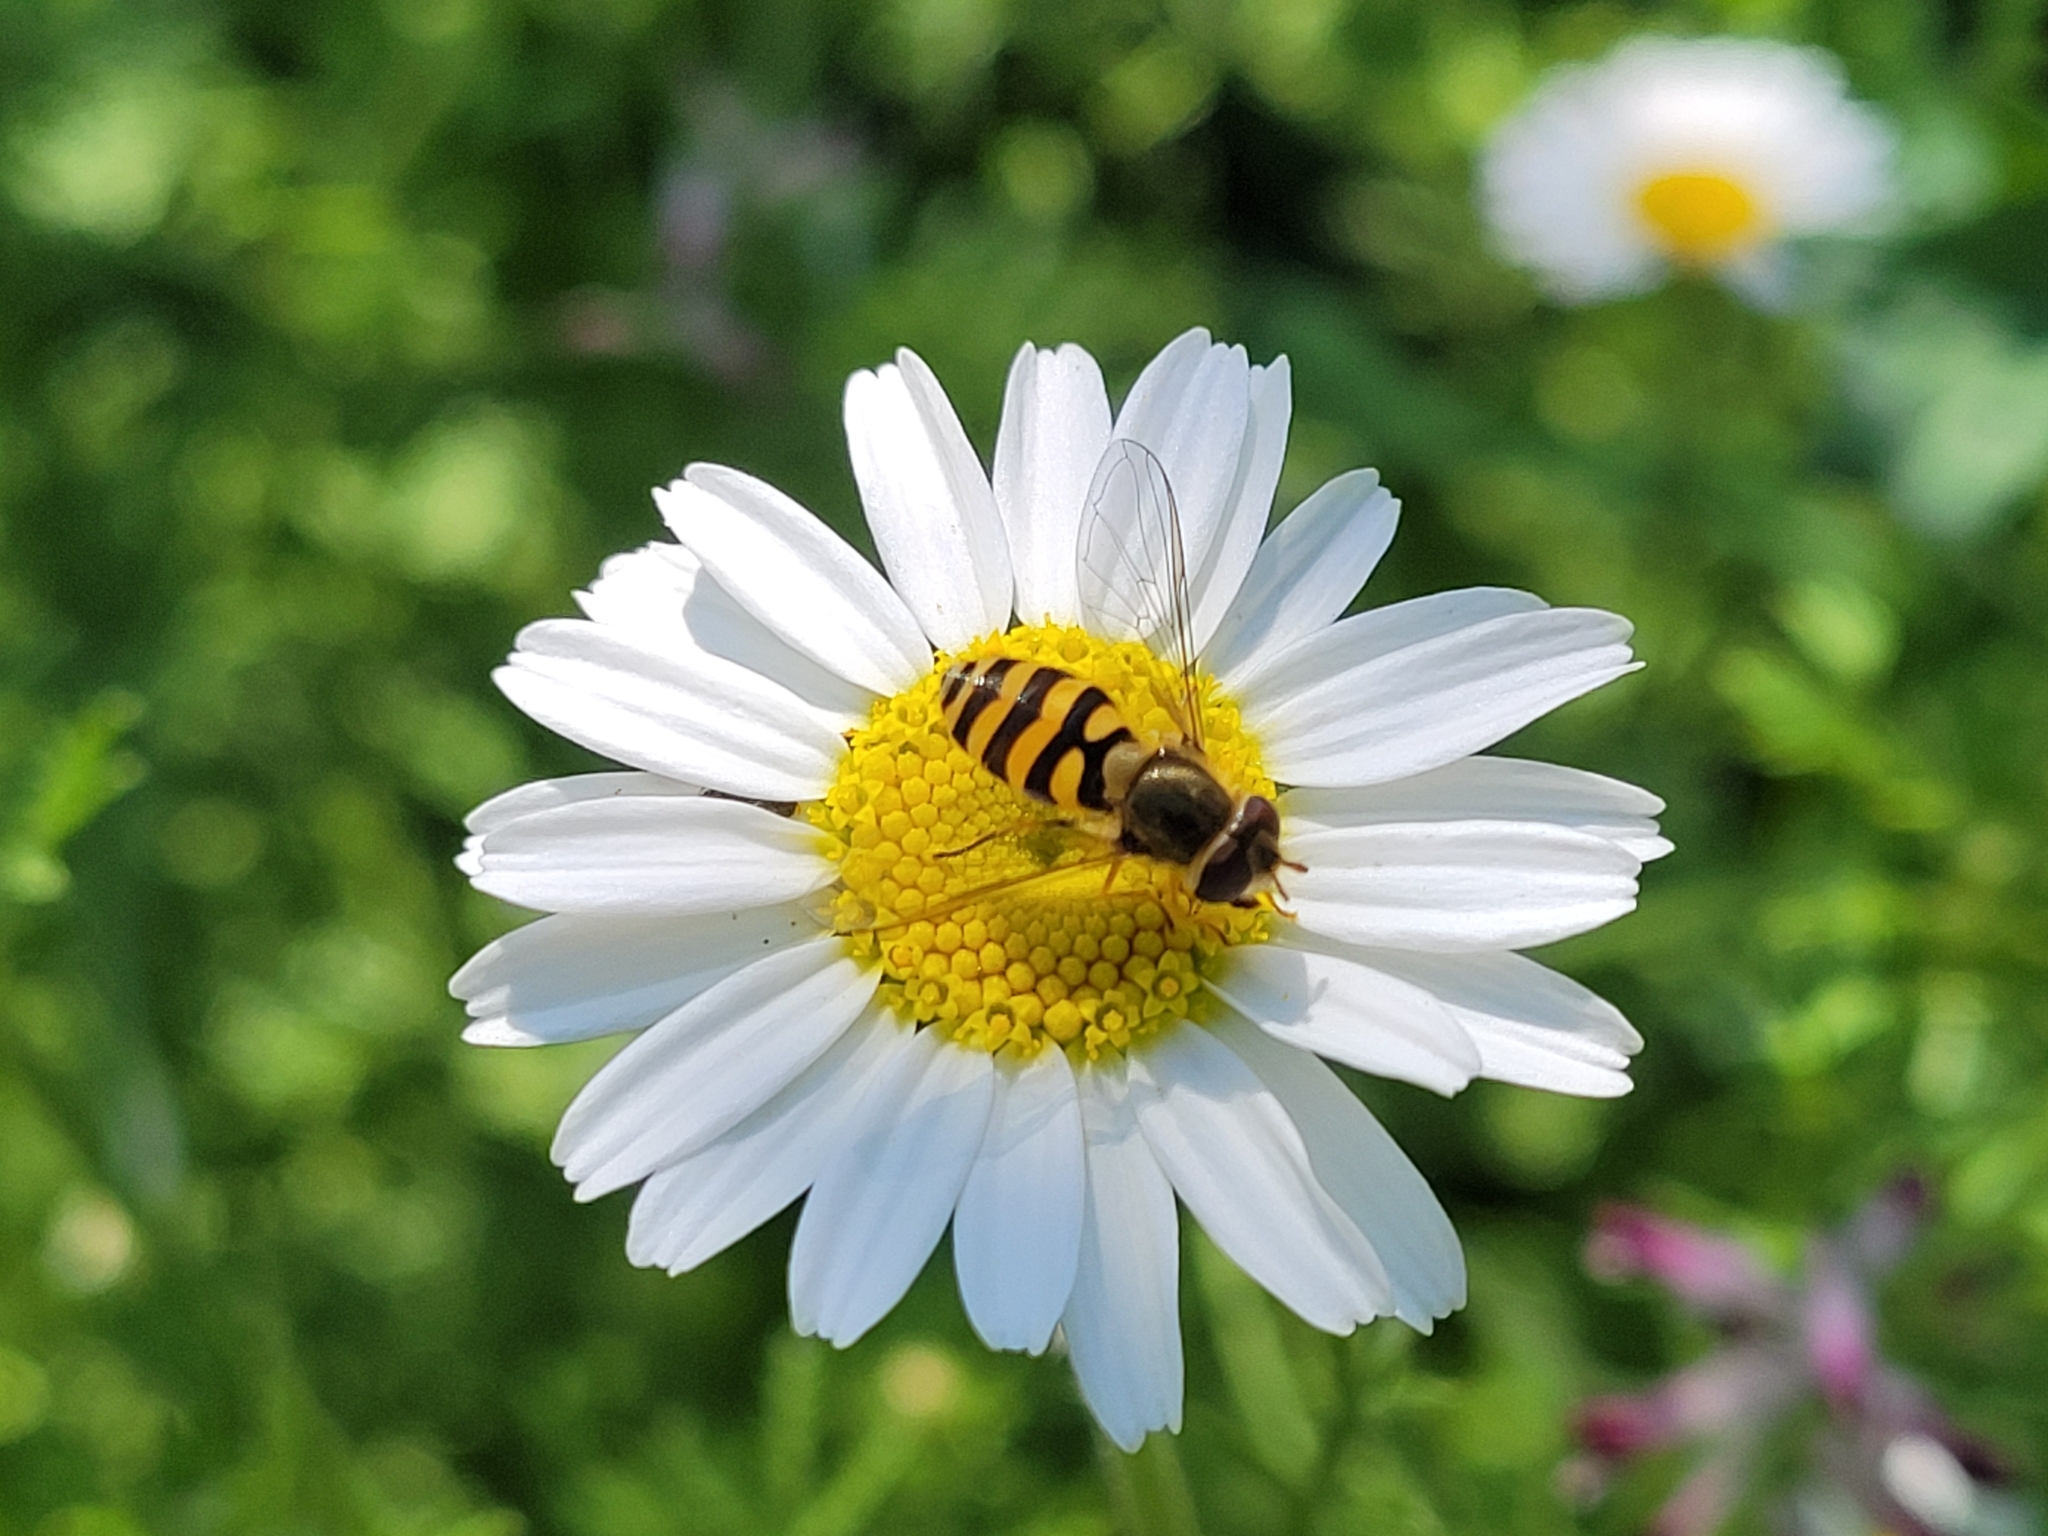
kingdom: Animalia
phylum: Arthropoda
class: Insecta
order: Diptera
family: Syrphidae
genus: Syrphus
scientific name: Syrphus
